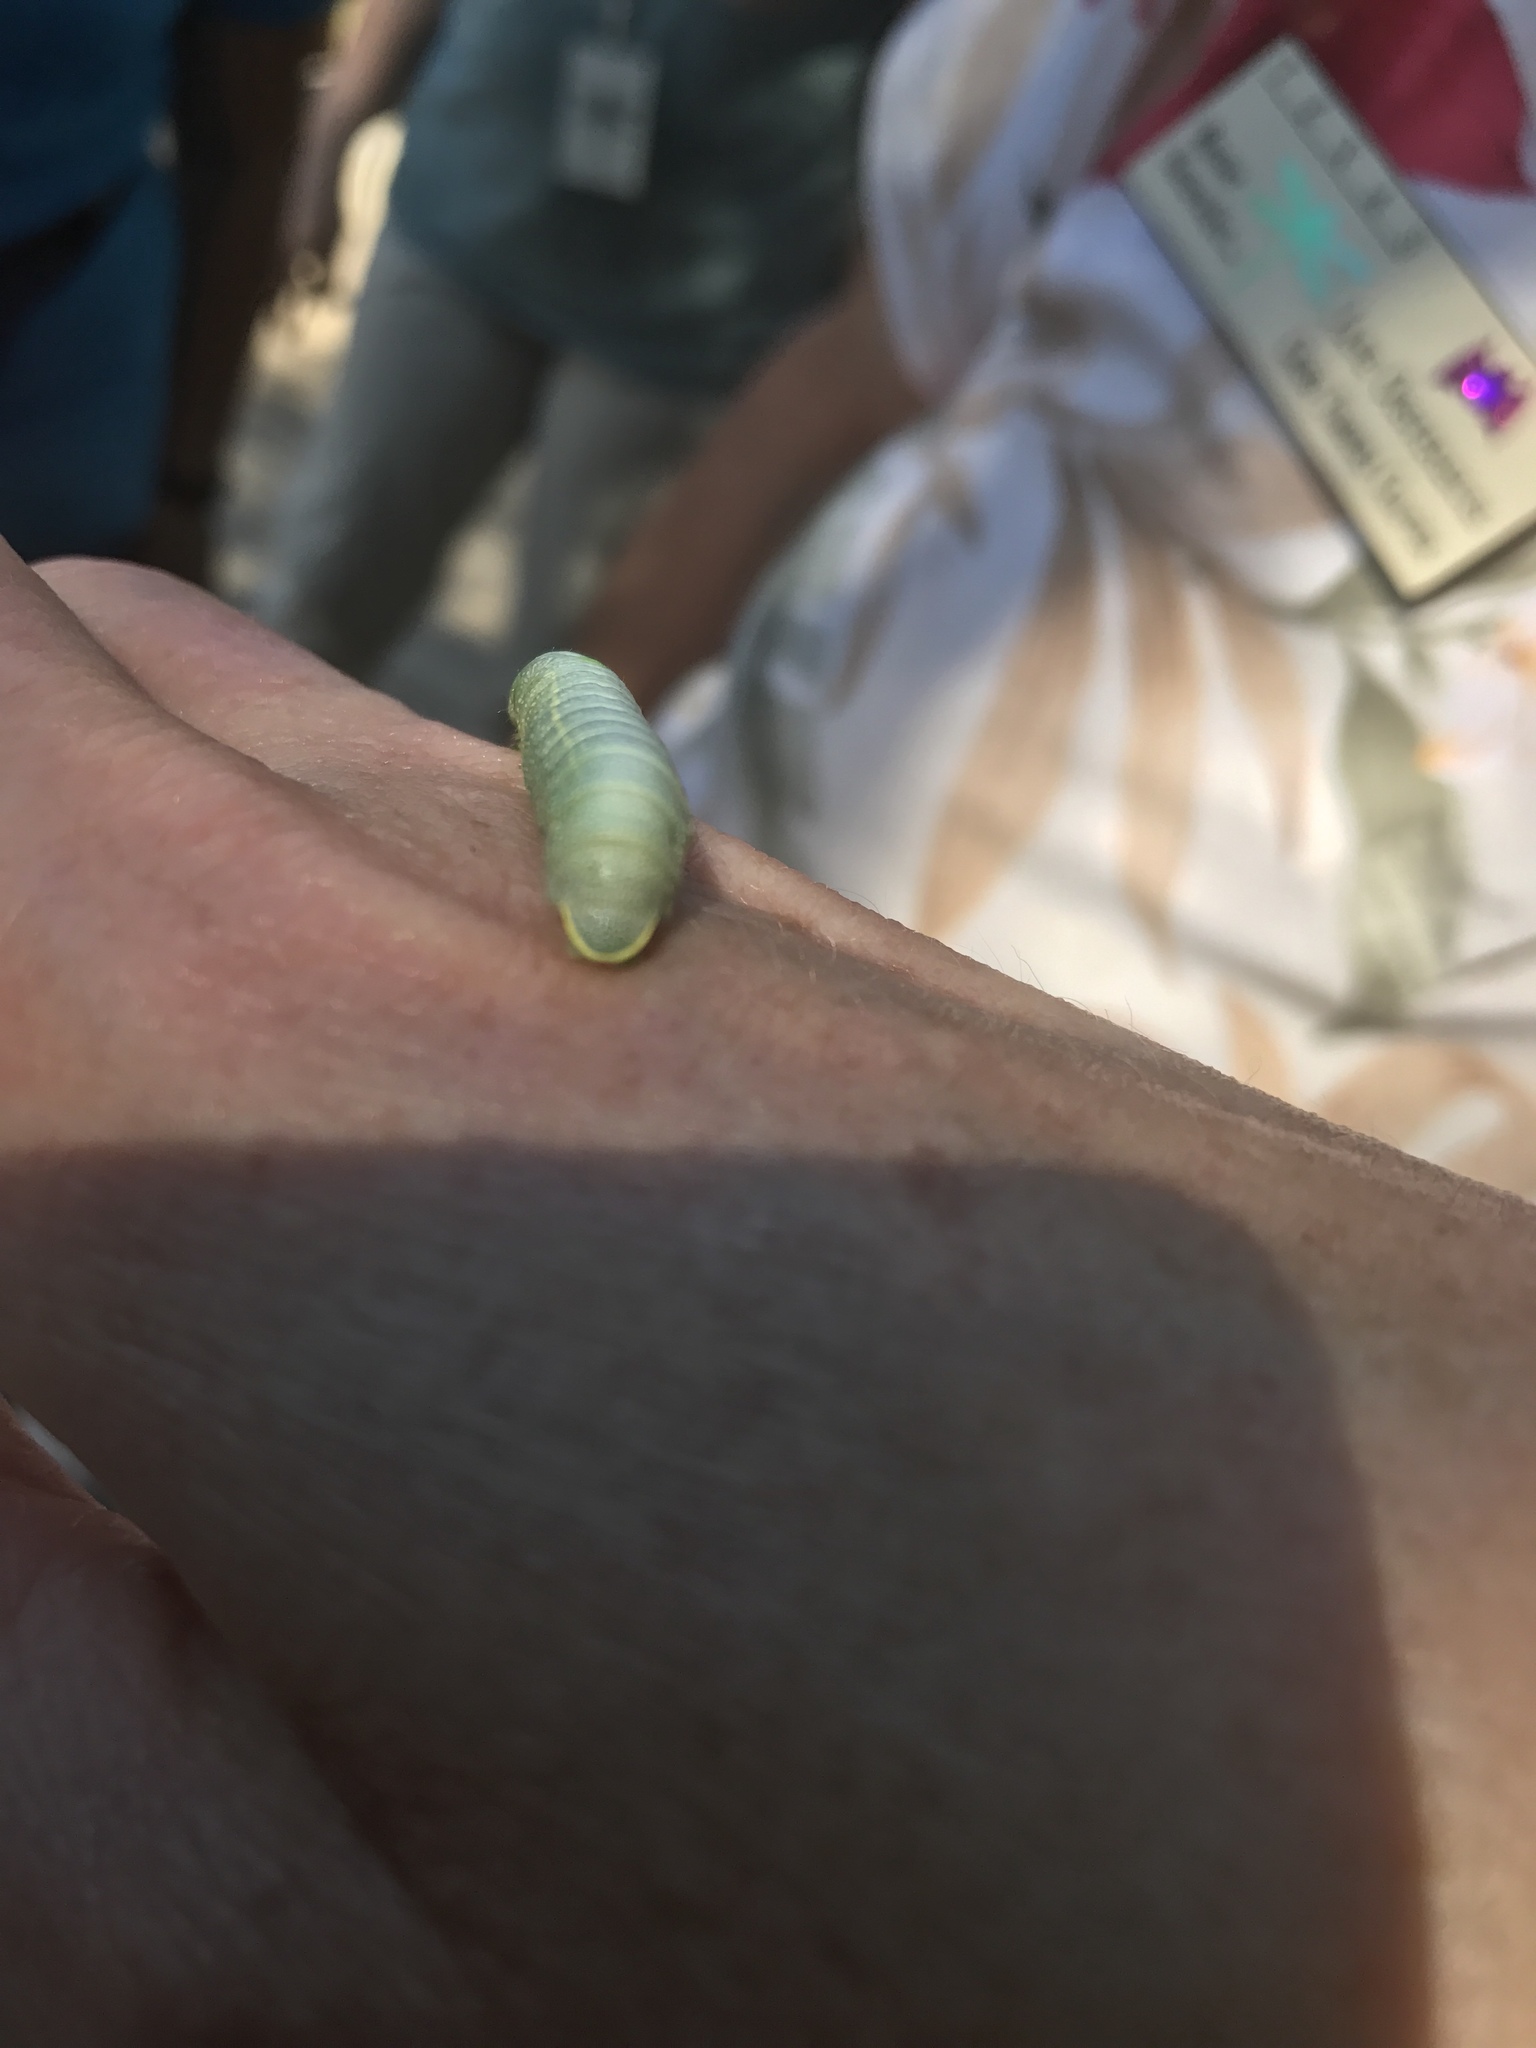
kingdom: Animalia
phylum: Arthropoda
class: Insecta
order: Lepidoptera
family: Notodontidae
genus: Nadata
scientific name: Nadata gibbosa
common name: White-dotted prominent
